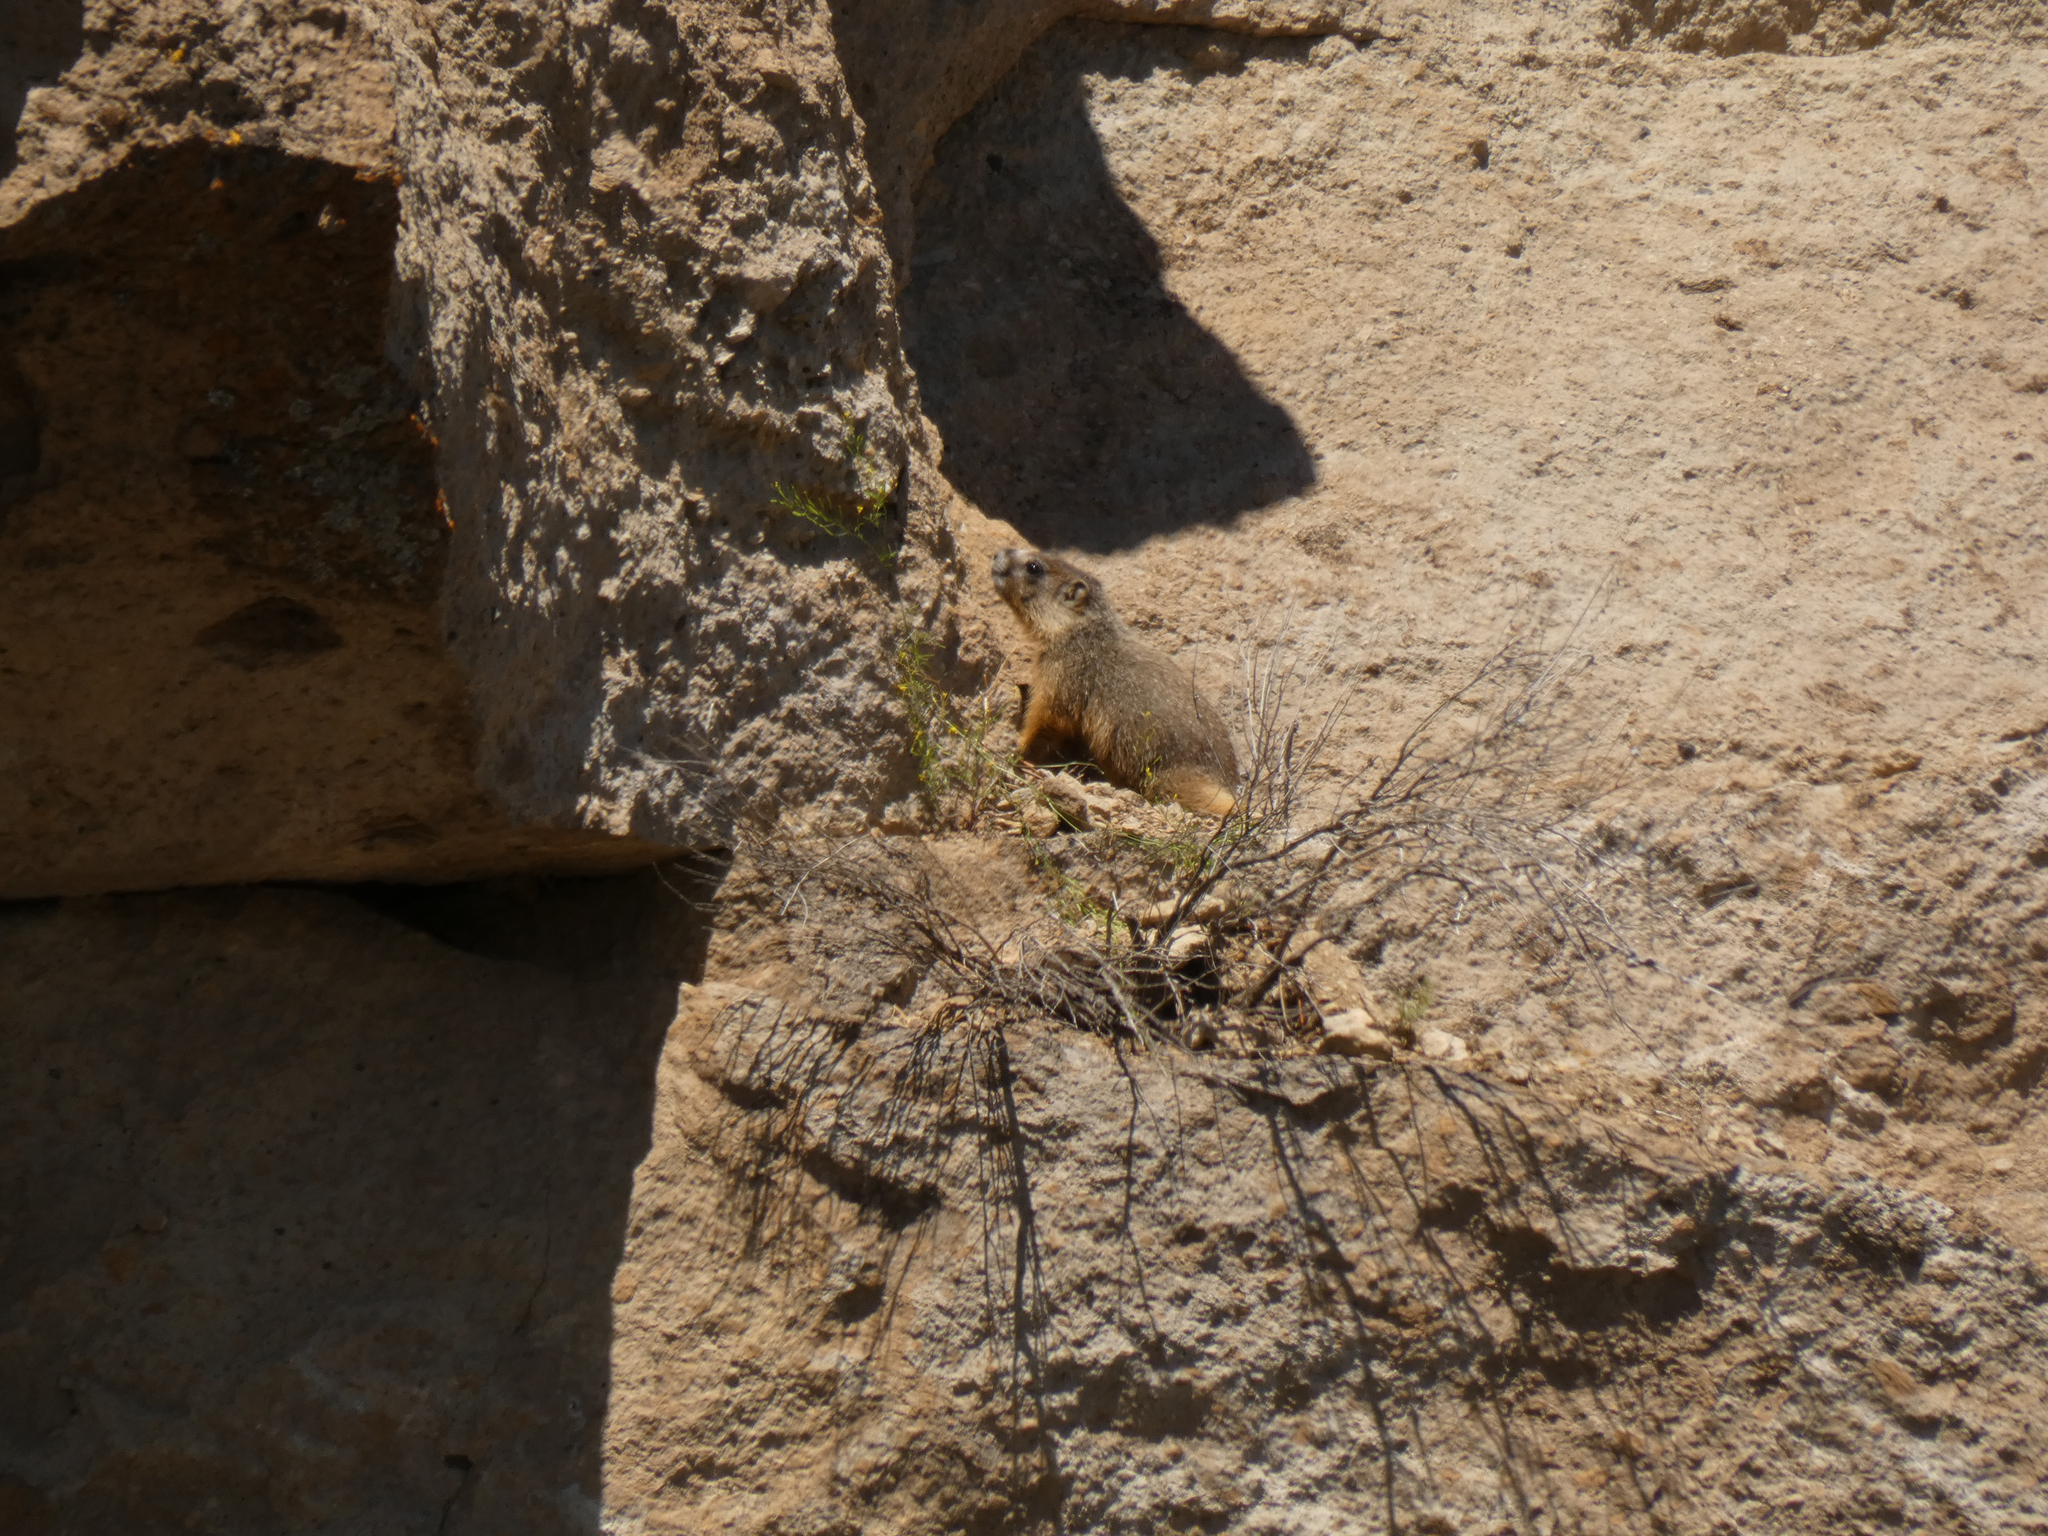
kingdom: Animalia
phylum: Chordata
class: Mammalia
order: Rodentia
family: Sciuridae
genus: Marmota
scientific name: Marmota flaviventris
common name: Yellow-bellied marmot
